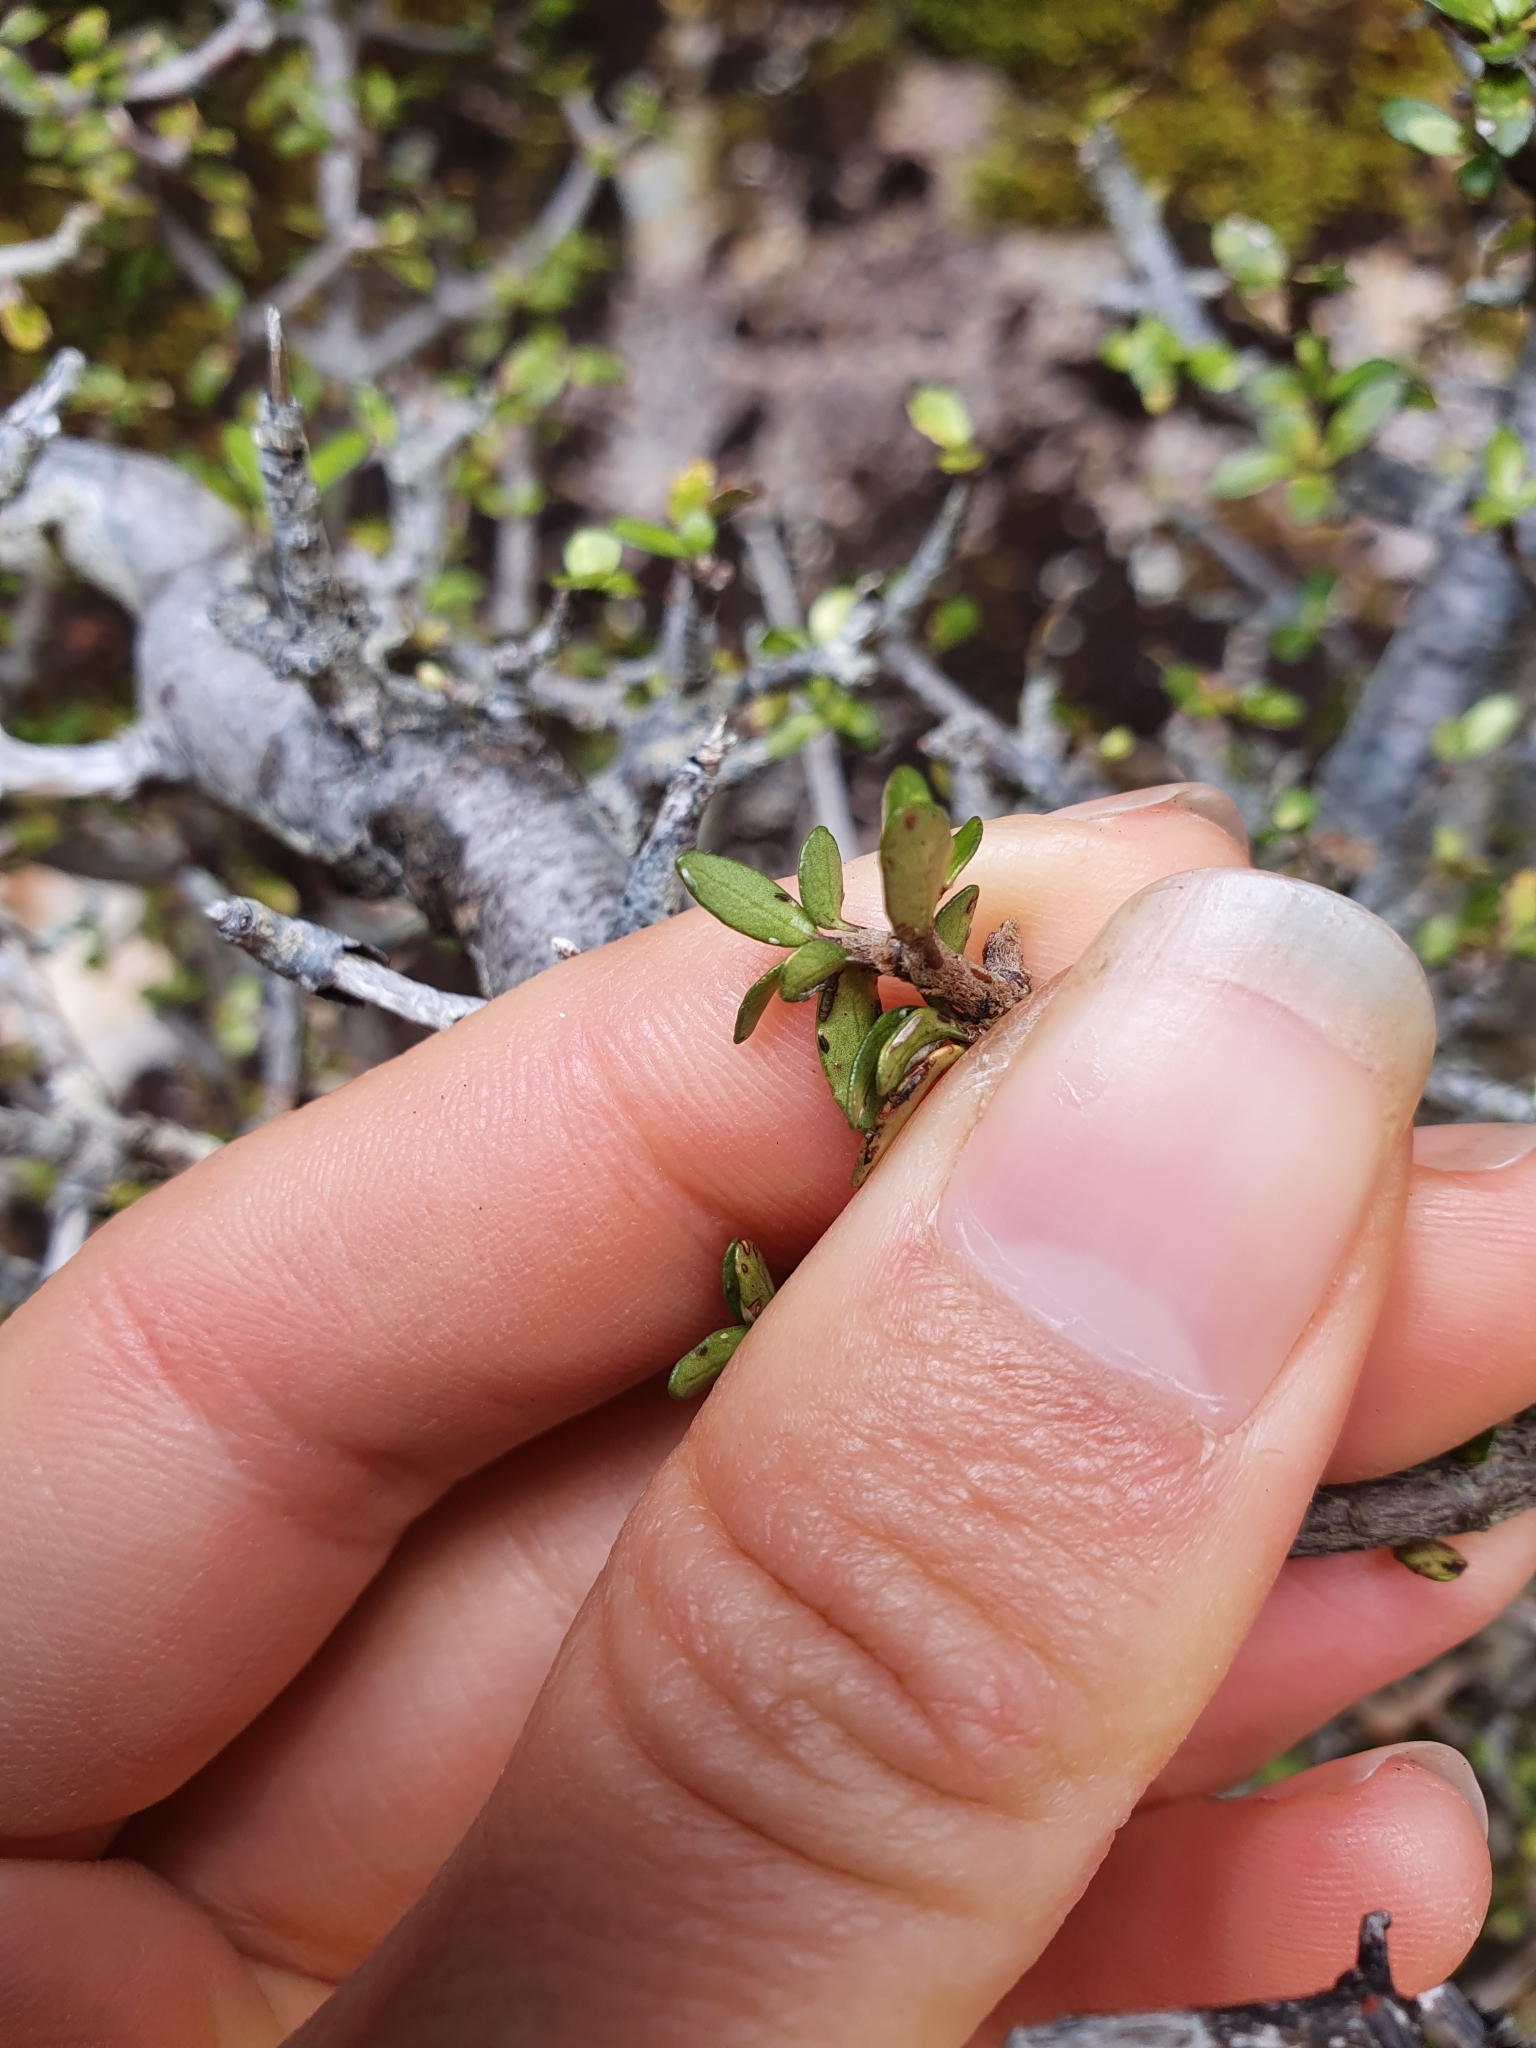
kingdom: Plantae
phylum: Tracheophyta
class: Magnoliopsida
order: Apiales
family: Pittosporaceae
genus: Pittosporum
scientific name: Pittosporum rigidum
